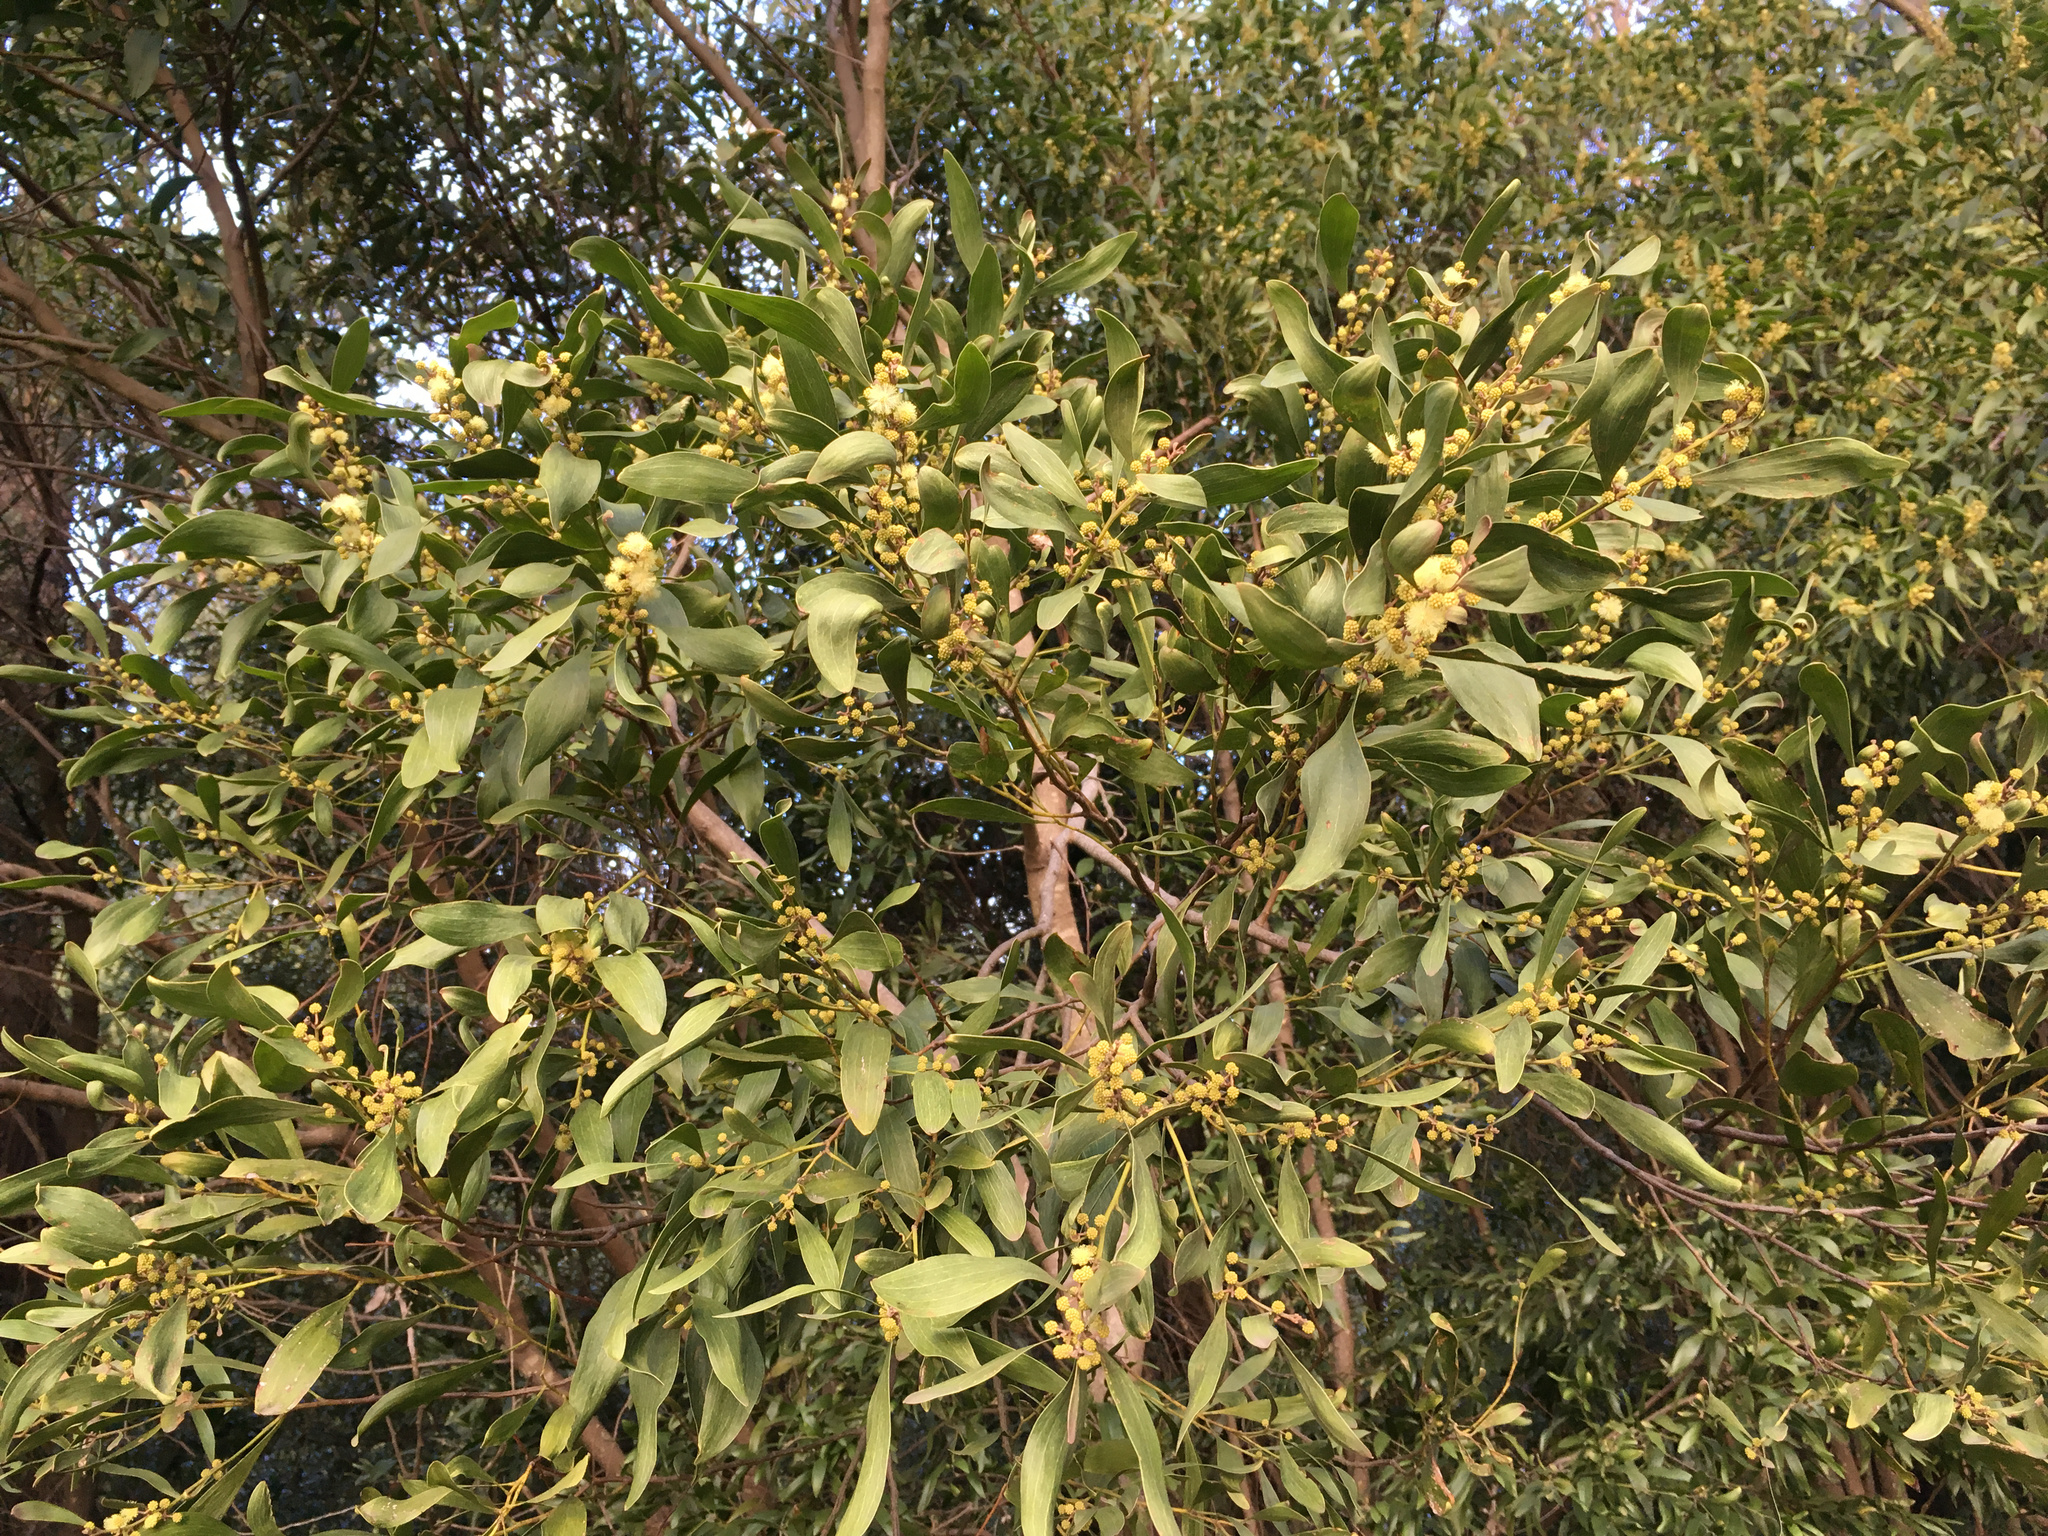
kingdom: Plantae
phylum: Tracheophyta
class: Magnoliopsida
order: Fabales
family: Fabaceae
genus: Acacia
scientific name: Acacia melanoxylon
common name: Blackwood
